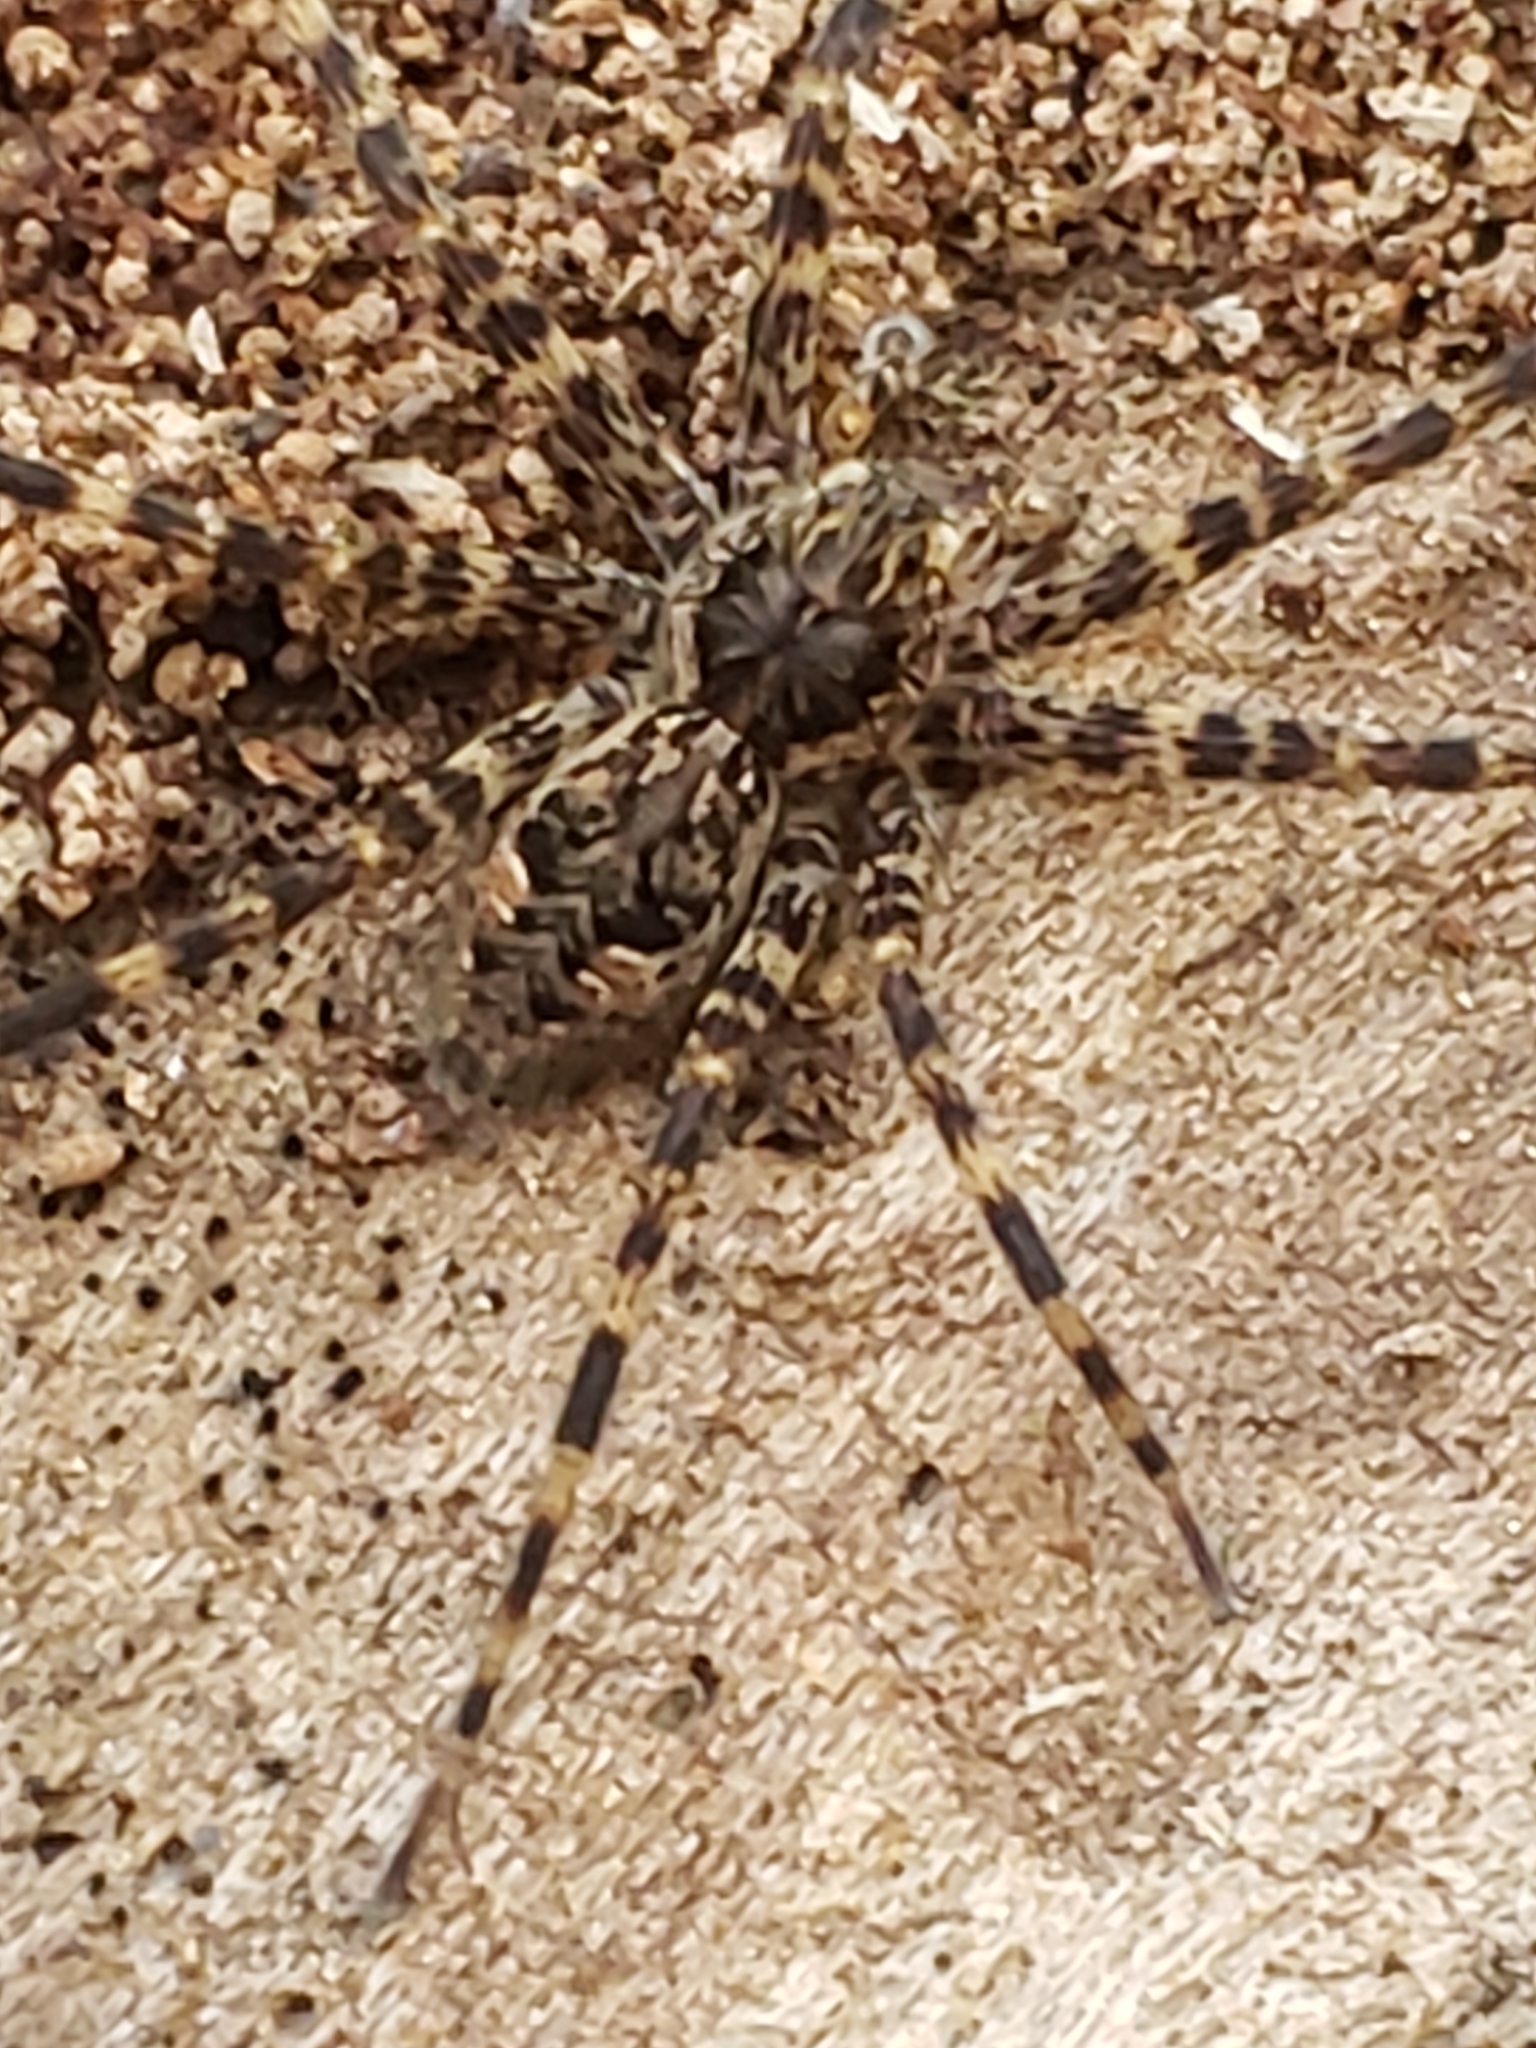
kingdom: Animalia
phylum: Arthropoda
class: Arachnida
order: Araneae
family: Pisauridae
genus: Dolomedes
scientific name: Dolomedes tenebrosus
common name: Dark fishing spider
